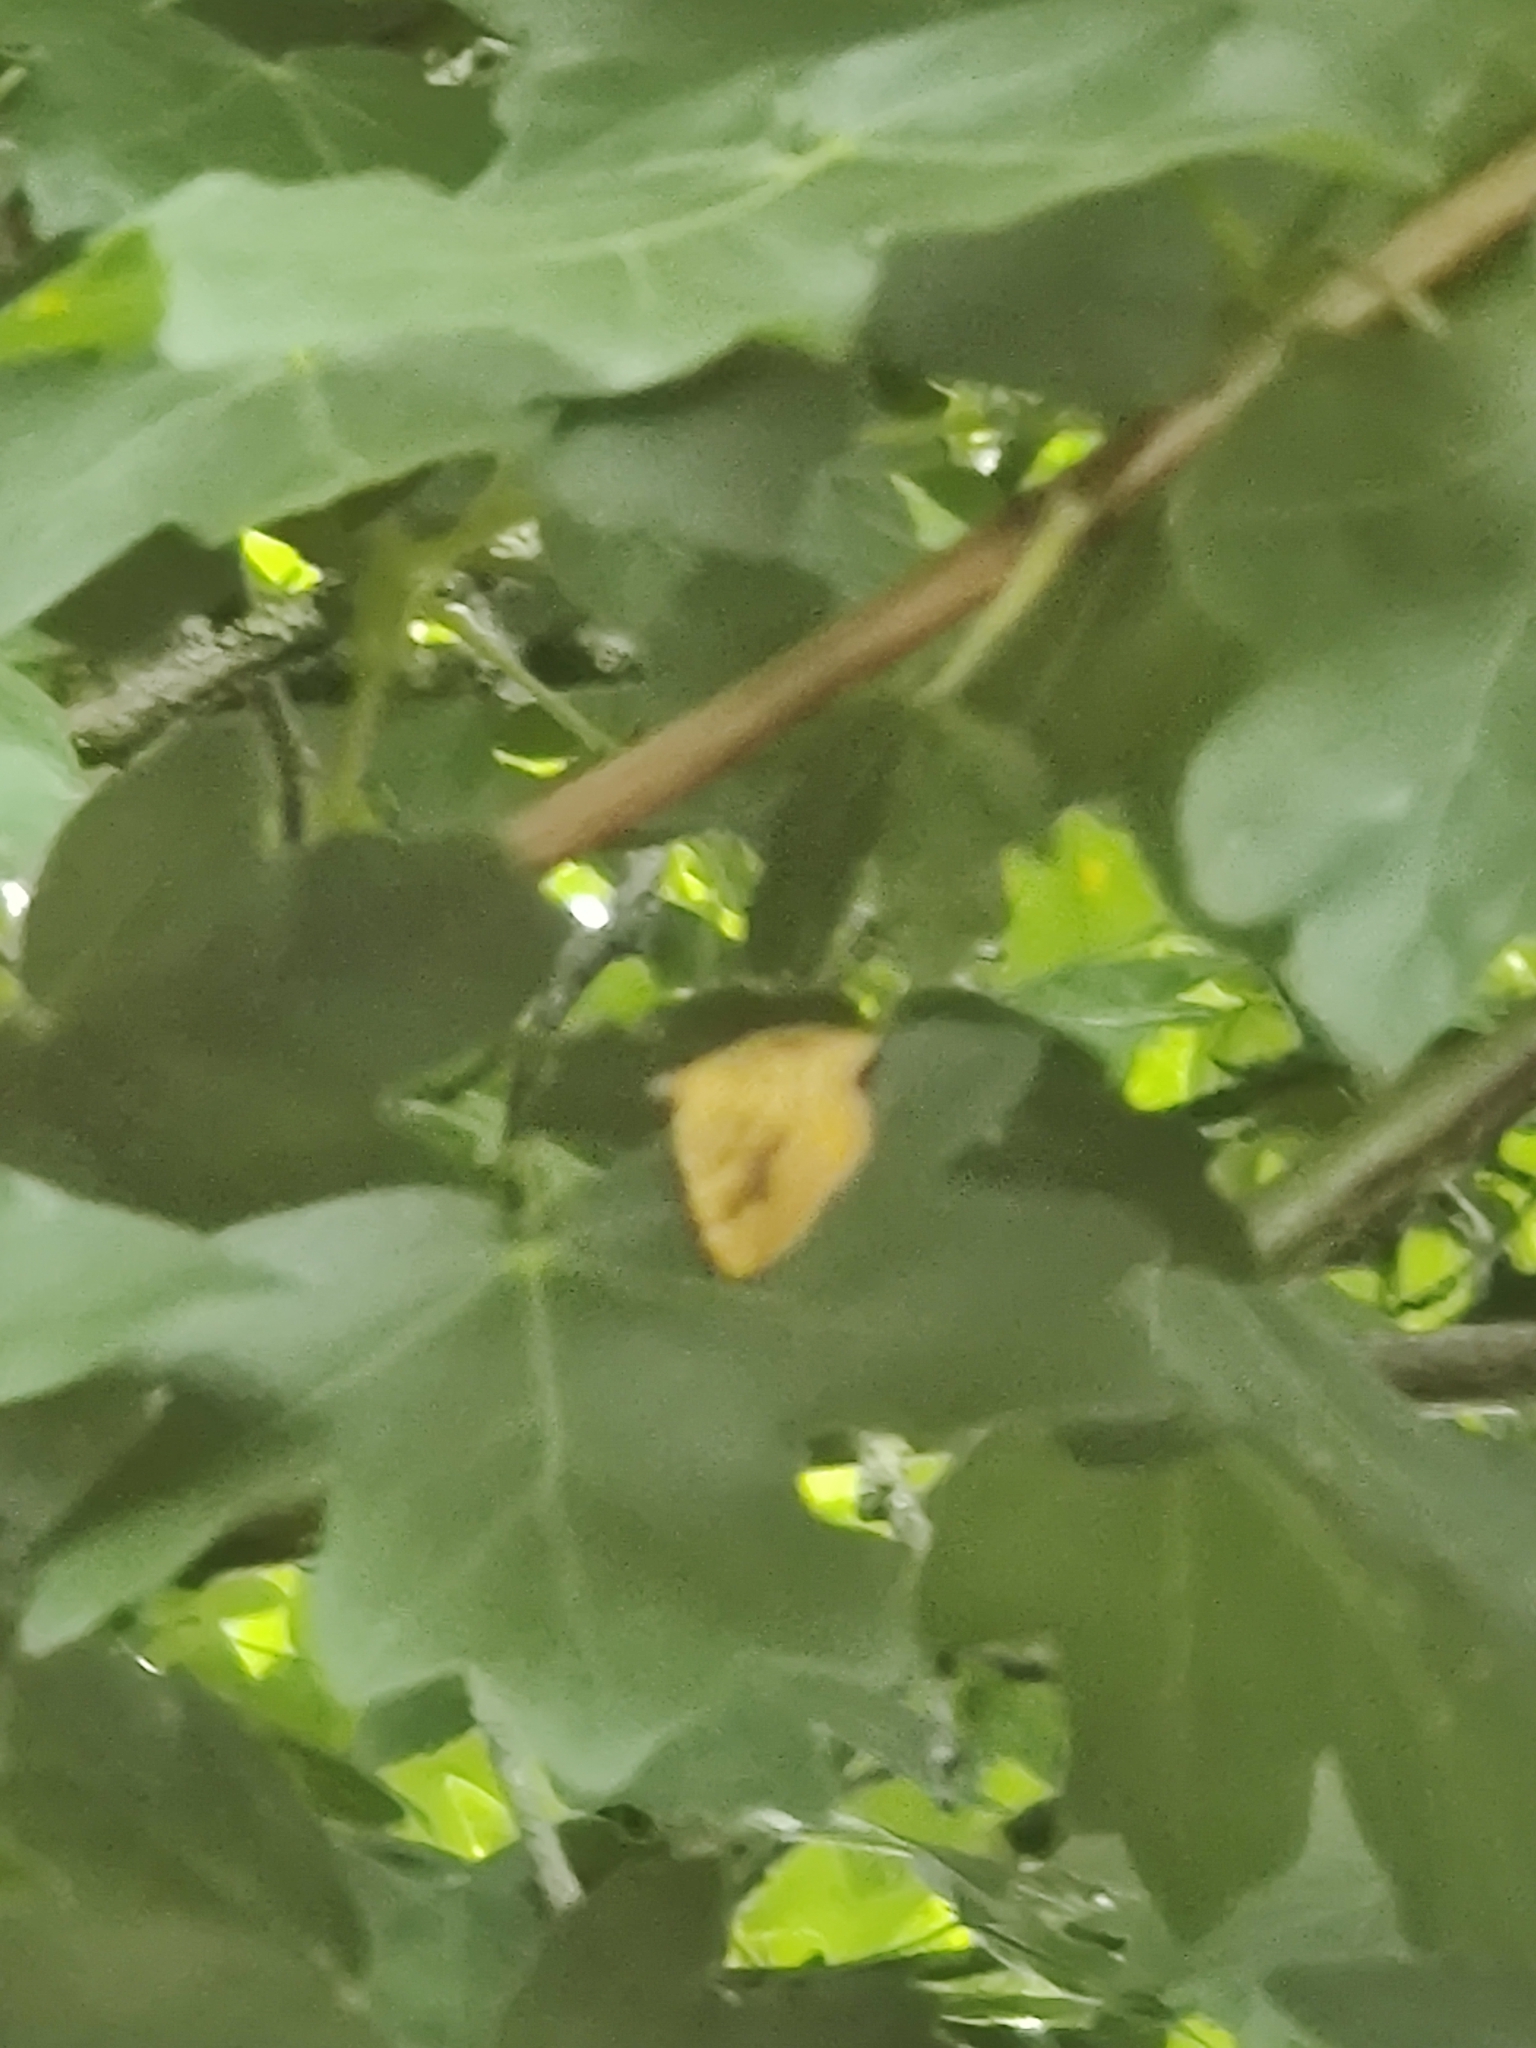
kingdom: Animalia
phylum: Arthropoda
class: Insecta
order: Lepidoptera
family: Geometridae
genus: Camptogramma
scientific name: Camptogramma bilineata
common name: Yellow shell
